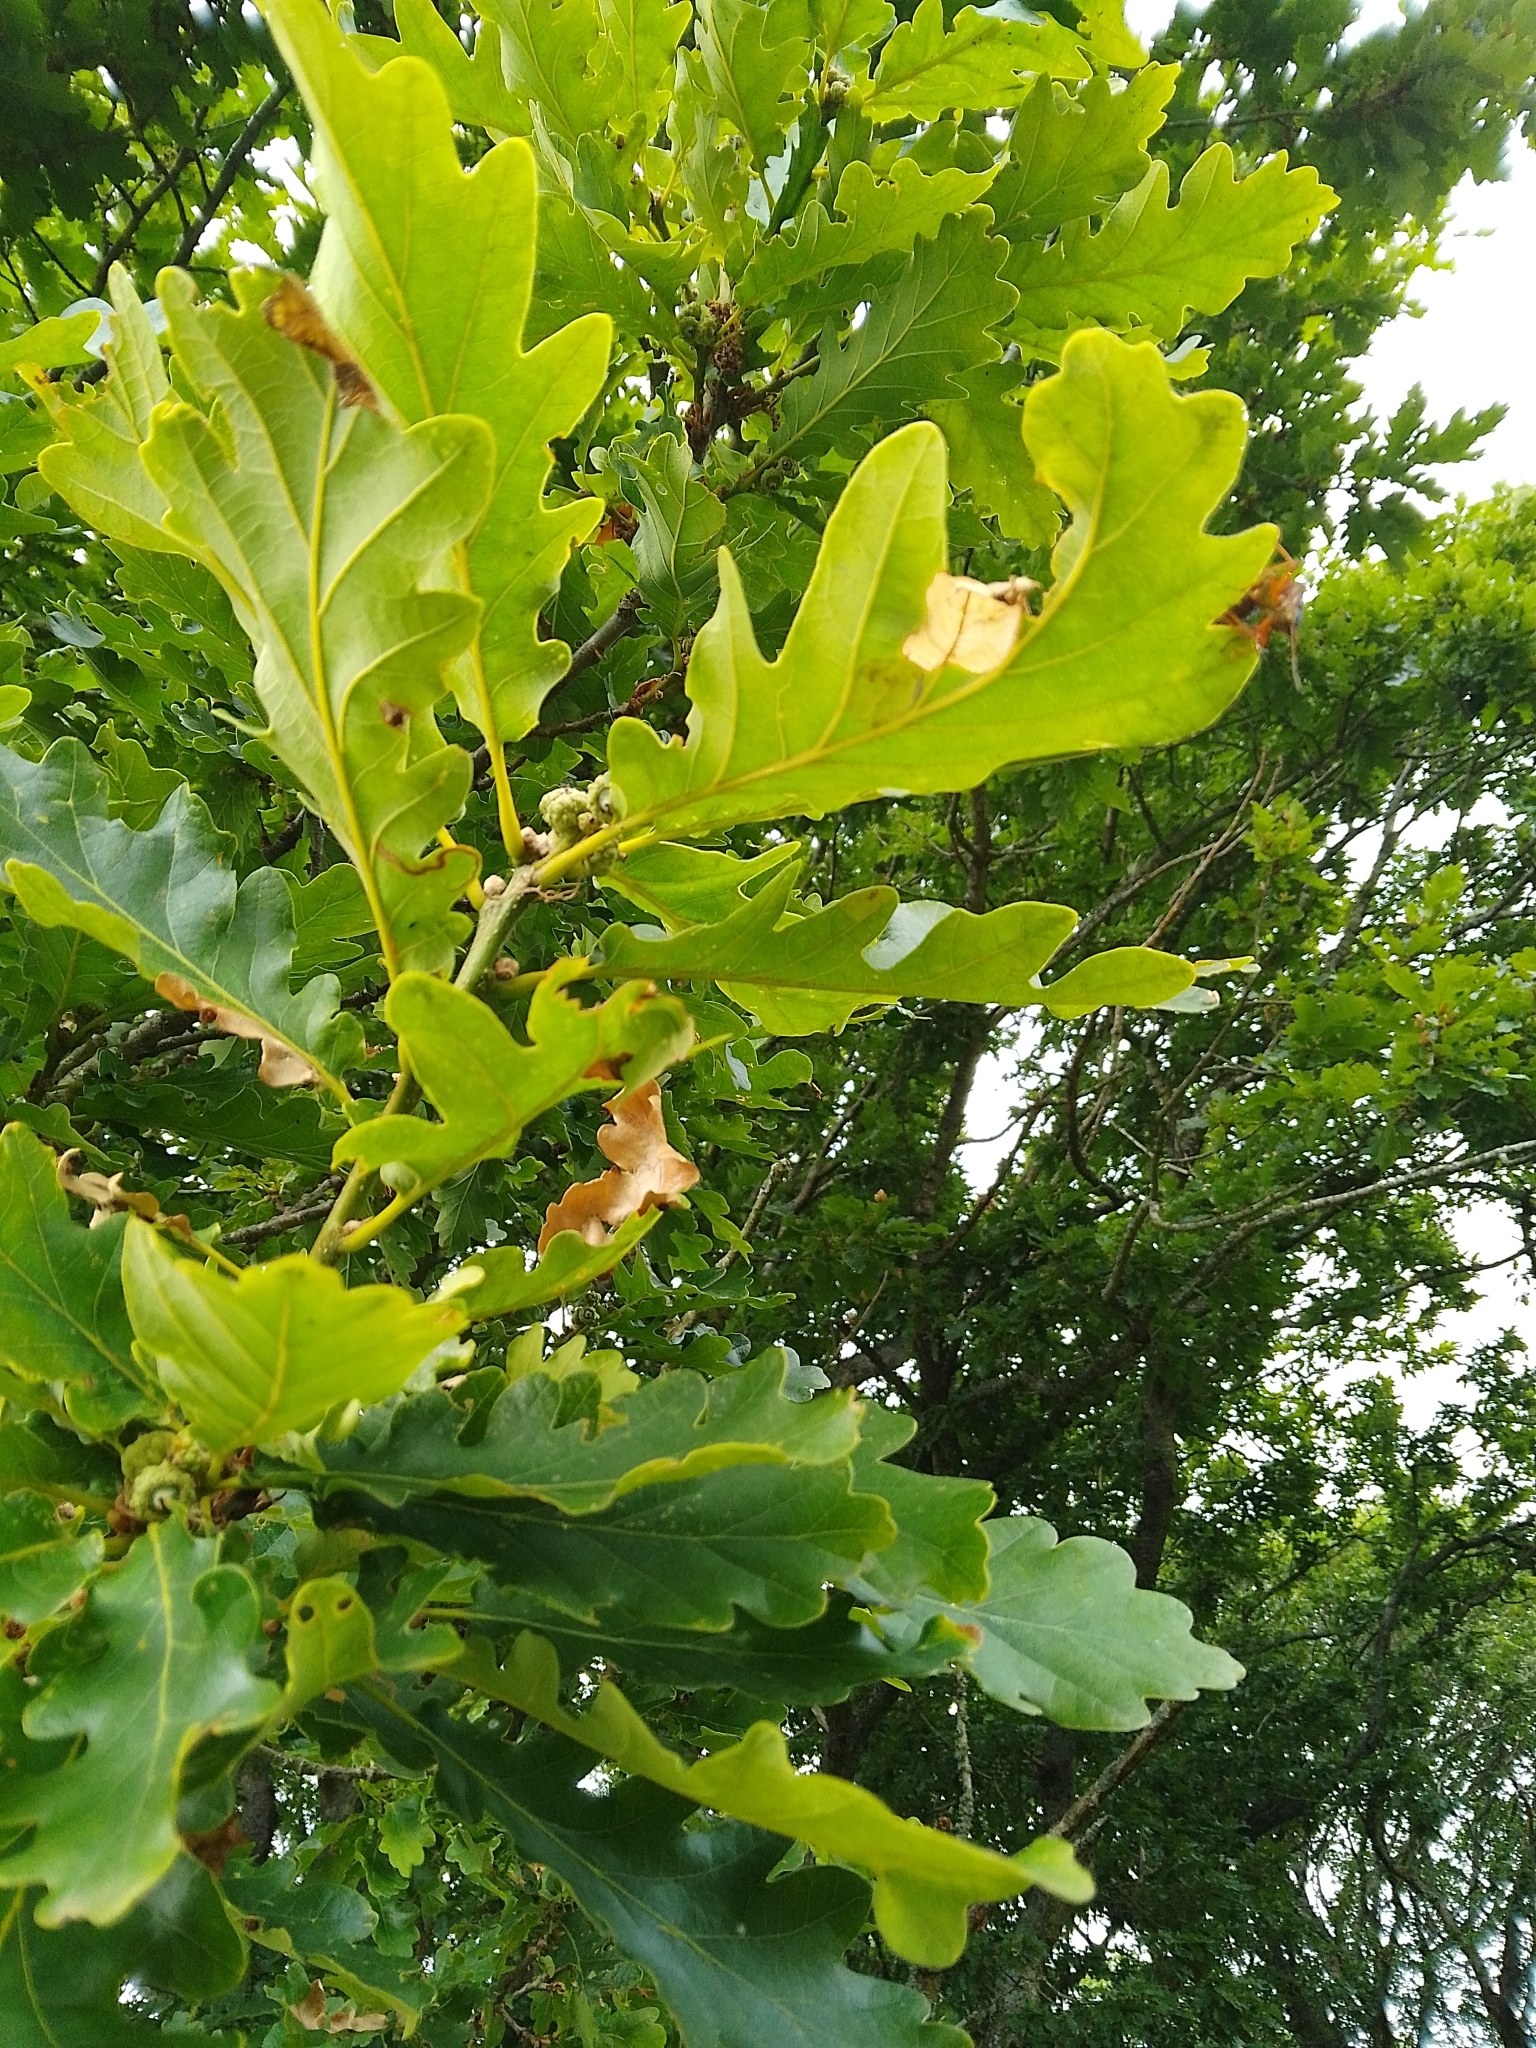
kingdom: Plantae
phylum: Tracheophyta
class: Magnoliopsida
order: Fagales
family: Fagaceae
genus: Quercus
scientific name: Quercus petraea
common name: Sessile oak
